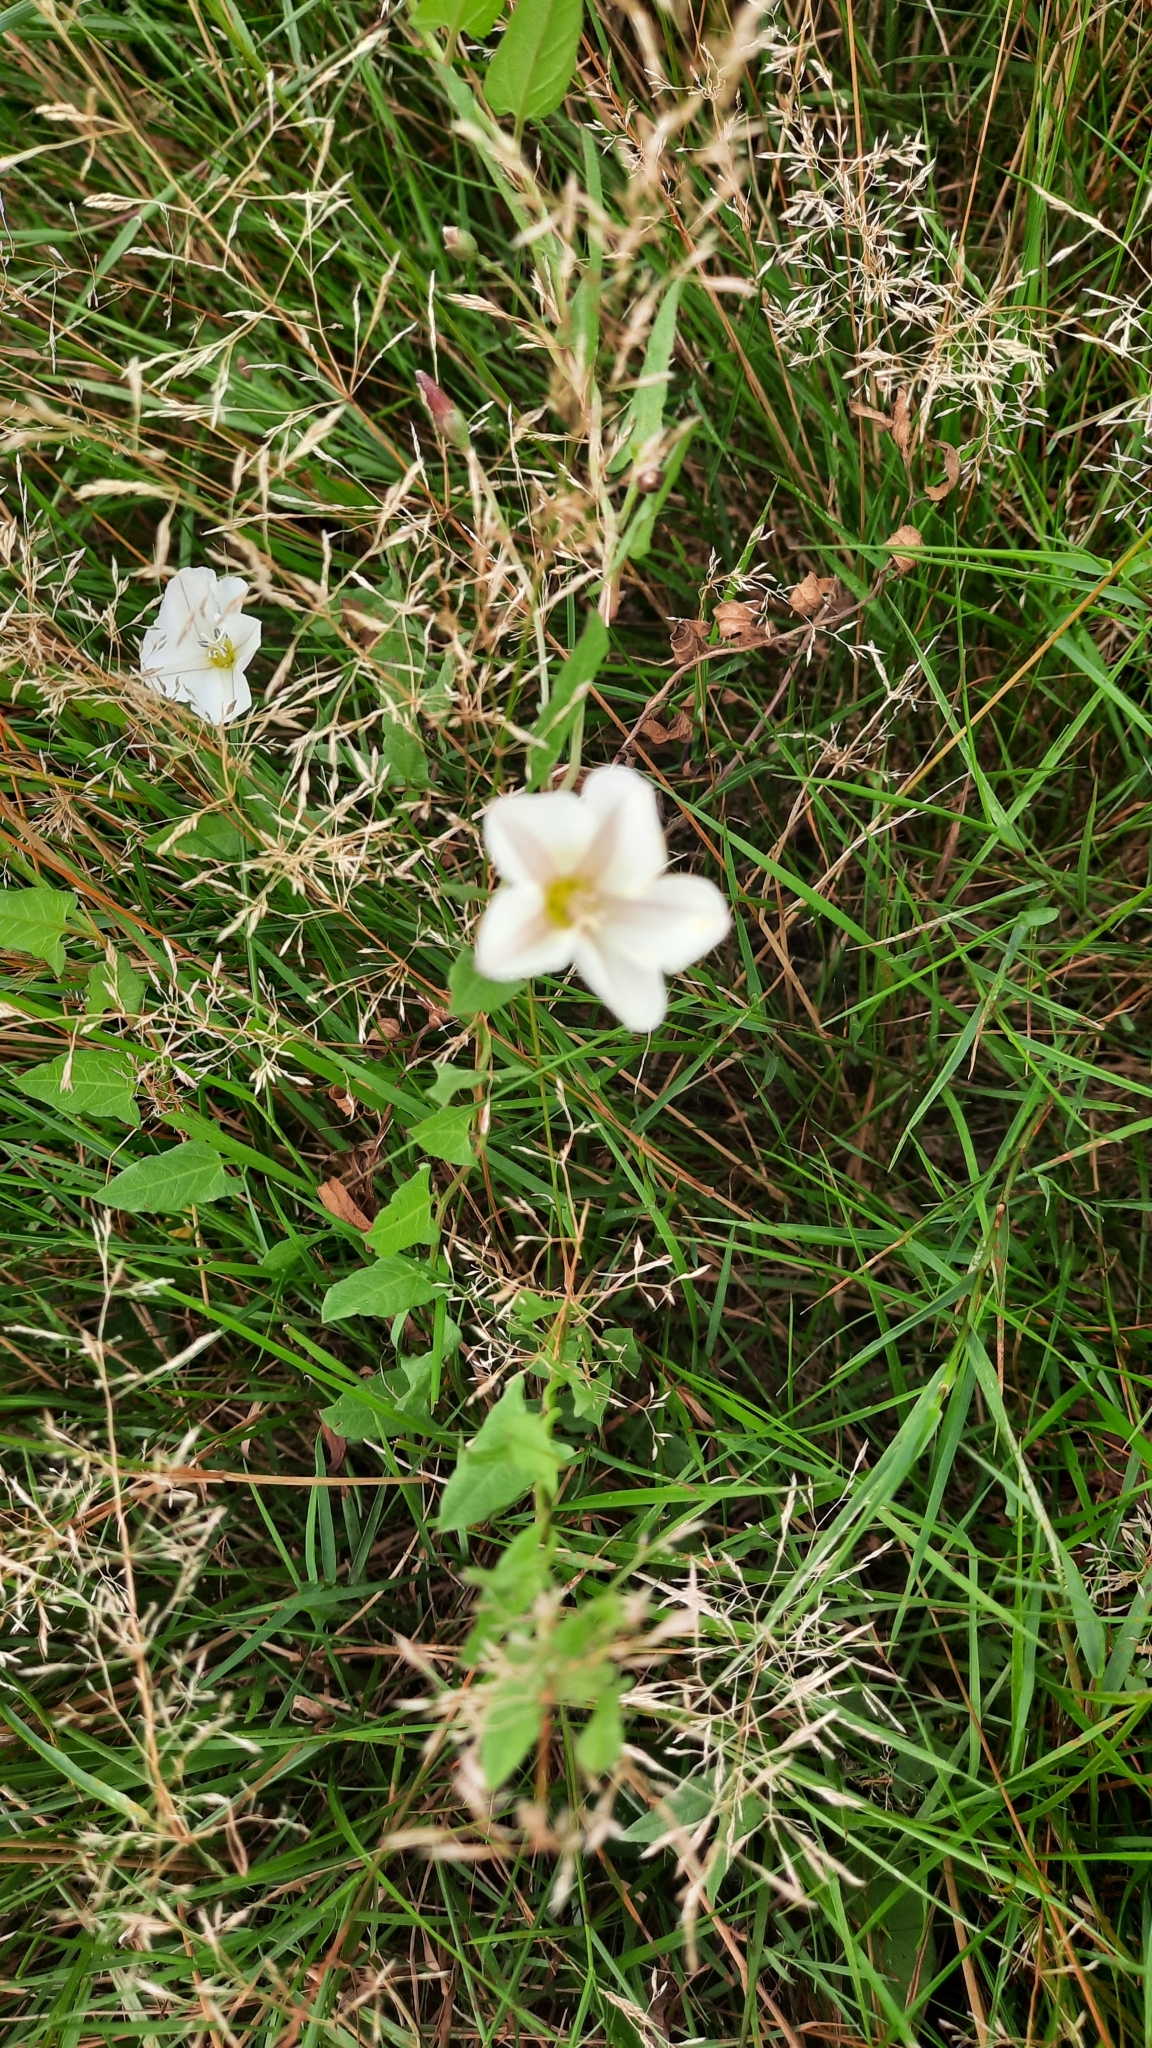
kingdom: Plantae
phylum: Tracheophyta
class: Magnoliopsida
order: Solanales
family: Convolvulaceae
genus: Convolvulus
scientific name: Convolvulus arvensis
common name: Field bindweed
